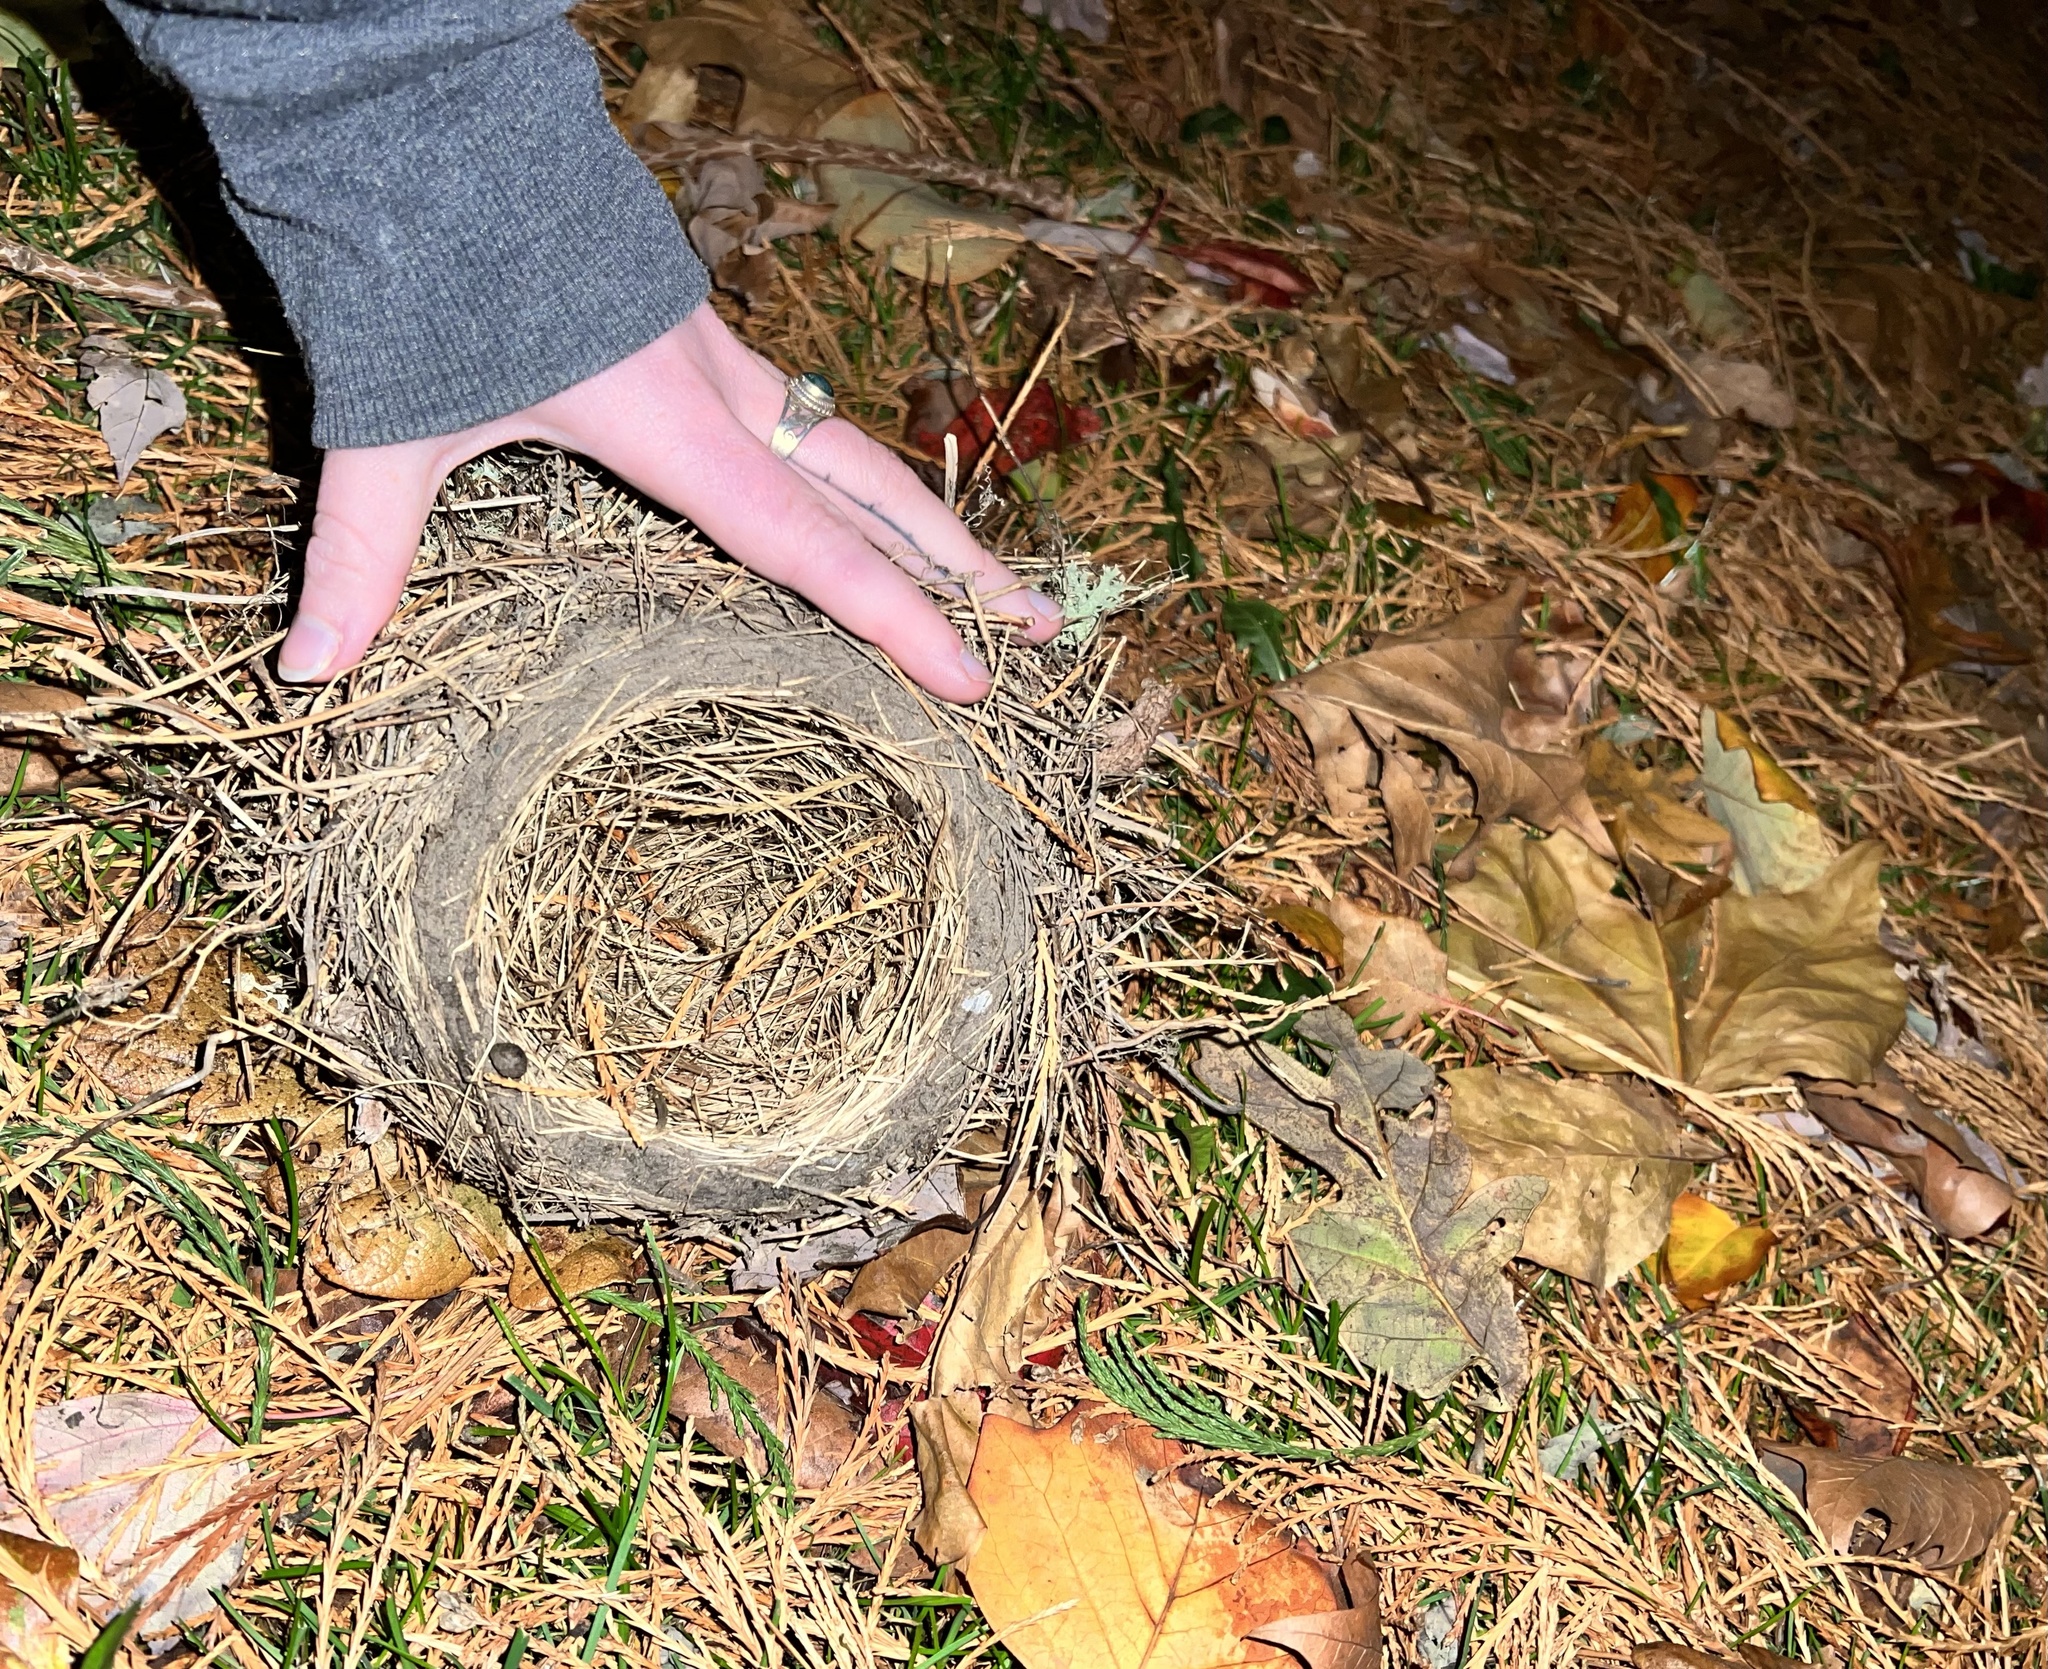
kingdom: Animalia
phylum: Chordata
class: Aves
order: Passeriformes
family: Turdidae
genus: Turdus
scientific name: Turdus migratorius
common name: American robin
